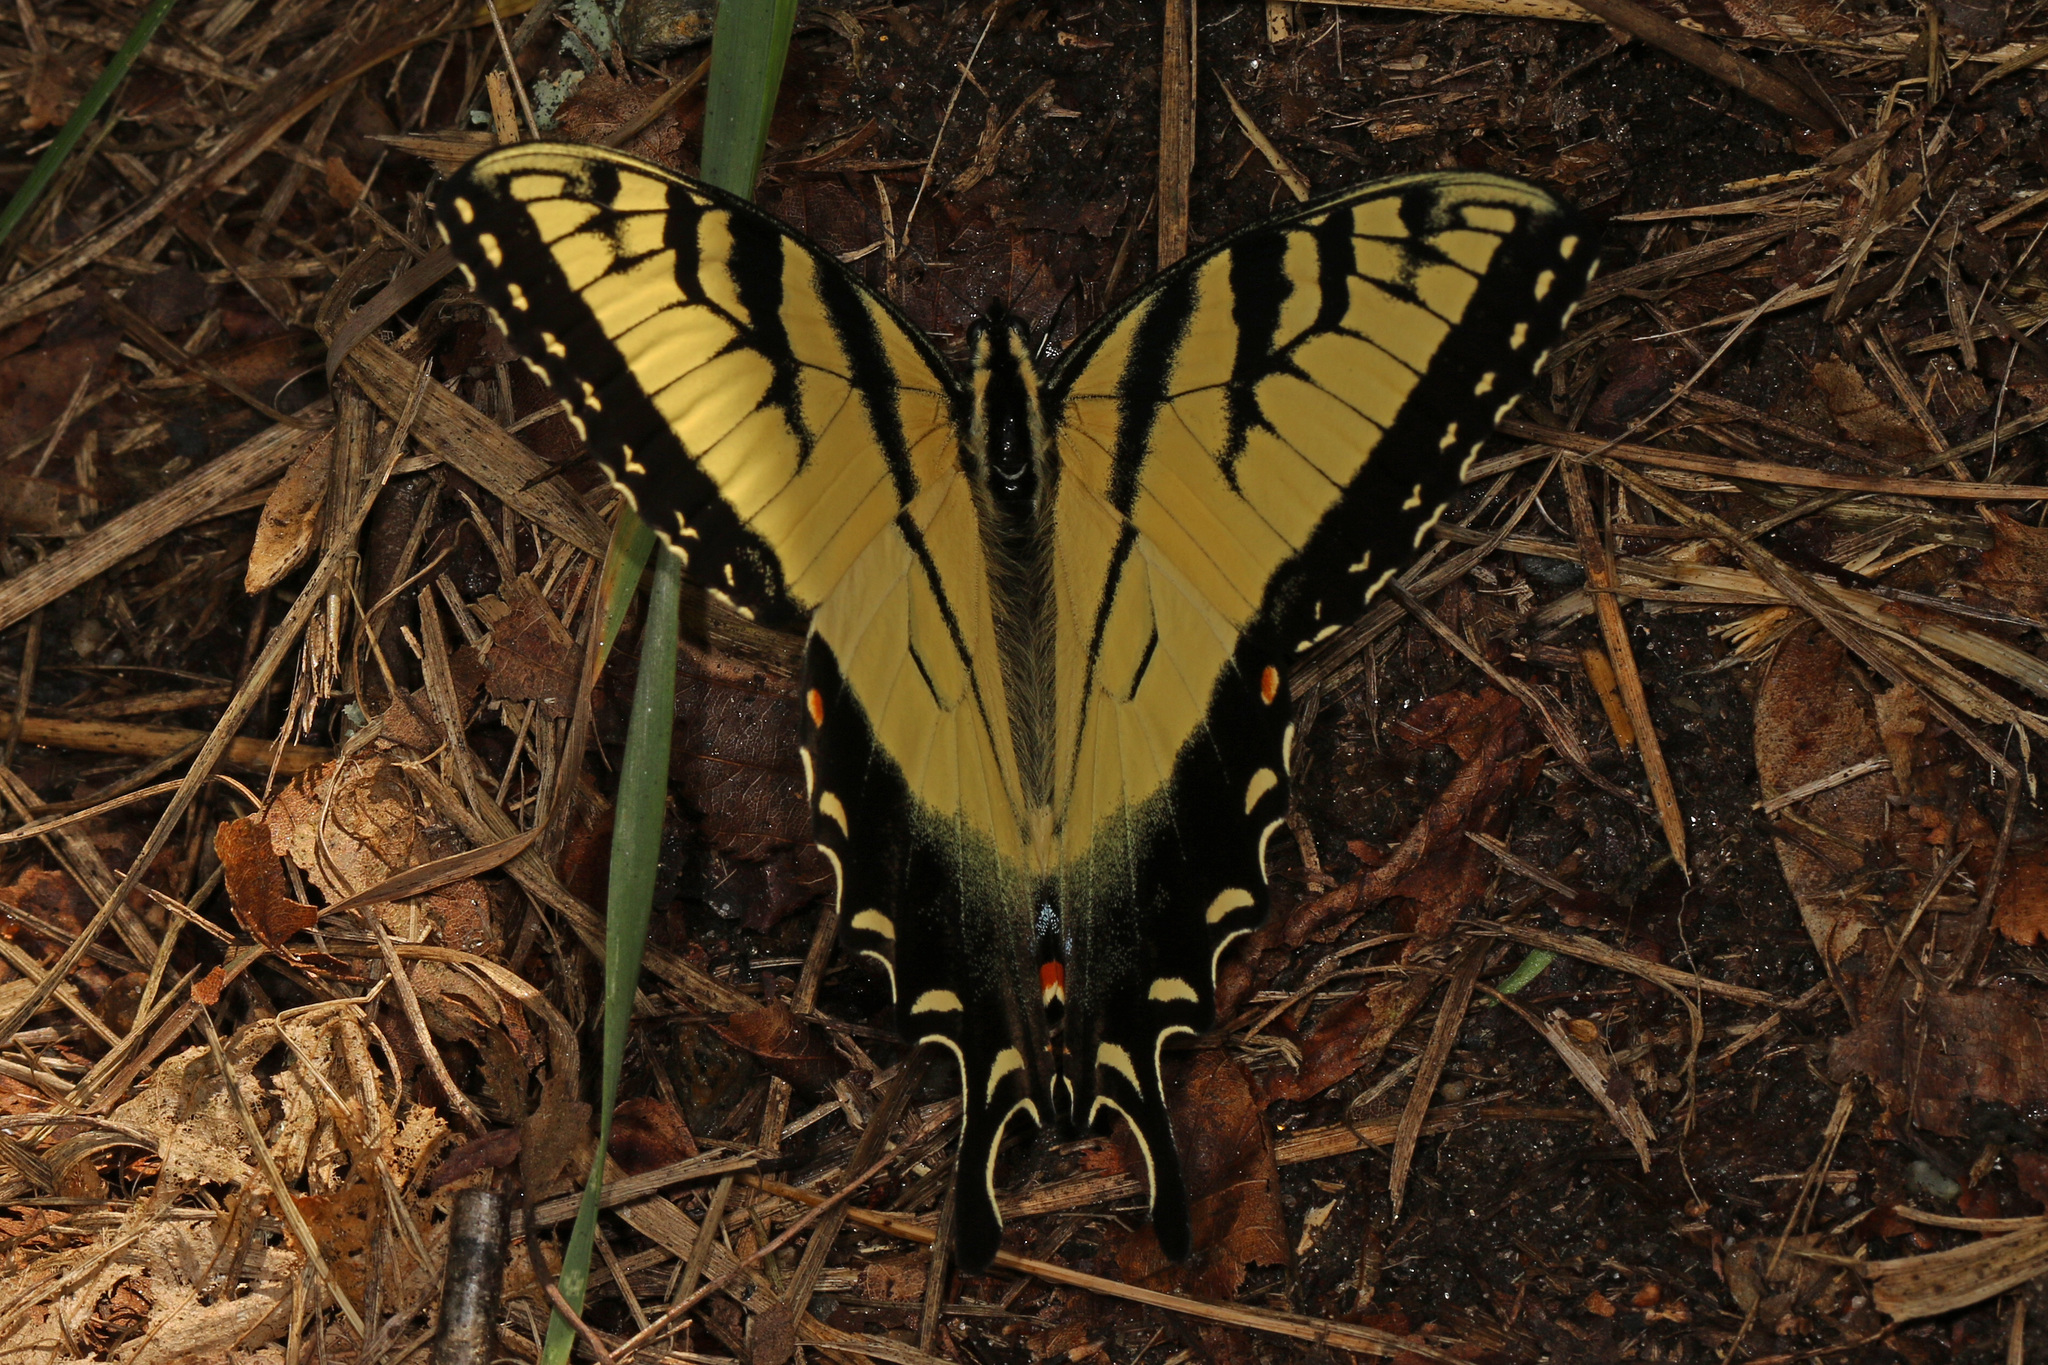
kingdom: Animalia
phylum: Arthropoda
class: Insecta
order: Lepidoptera
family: Papilionidae
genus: Papilio
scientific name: Papilio glaucus
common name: Tiger swallowtail
